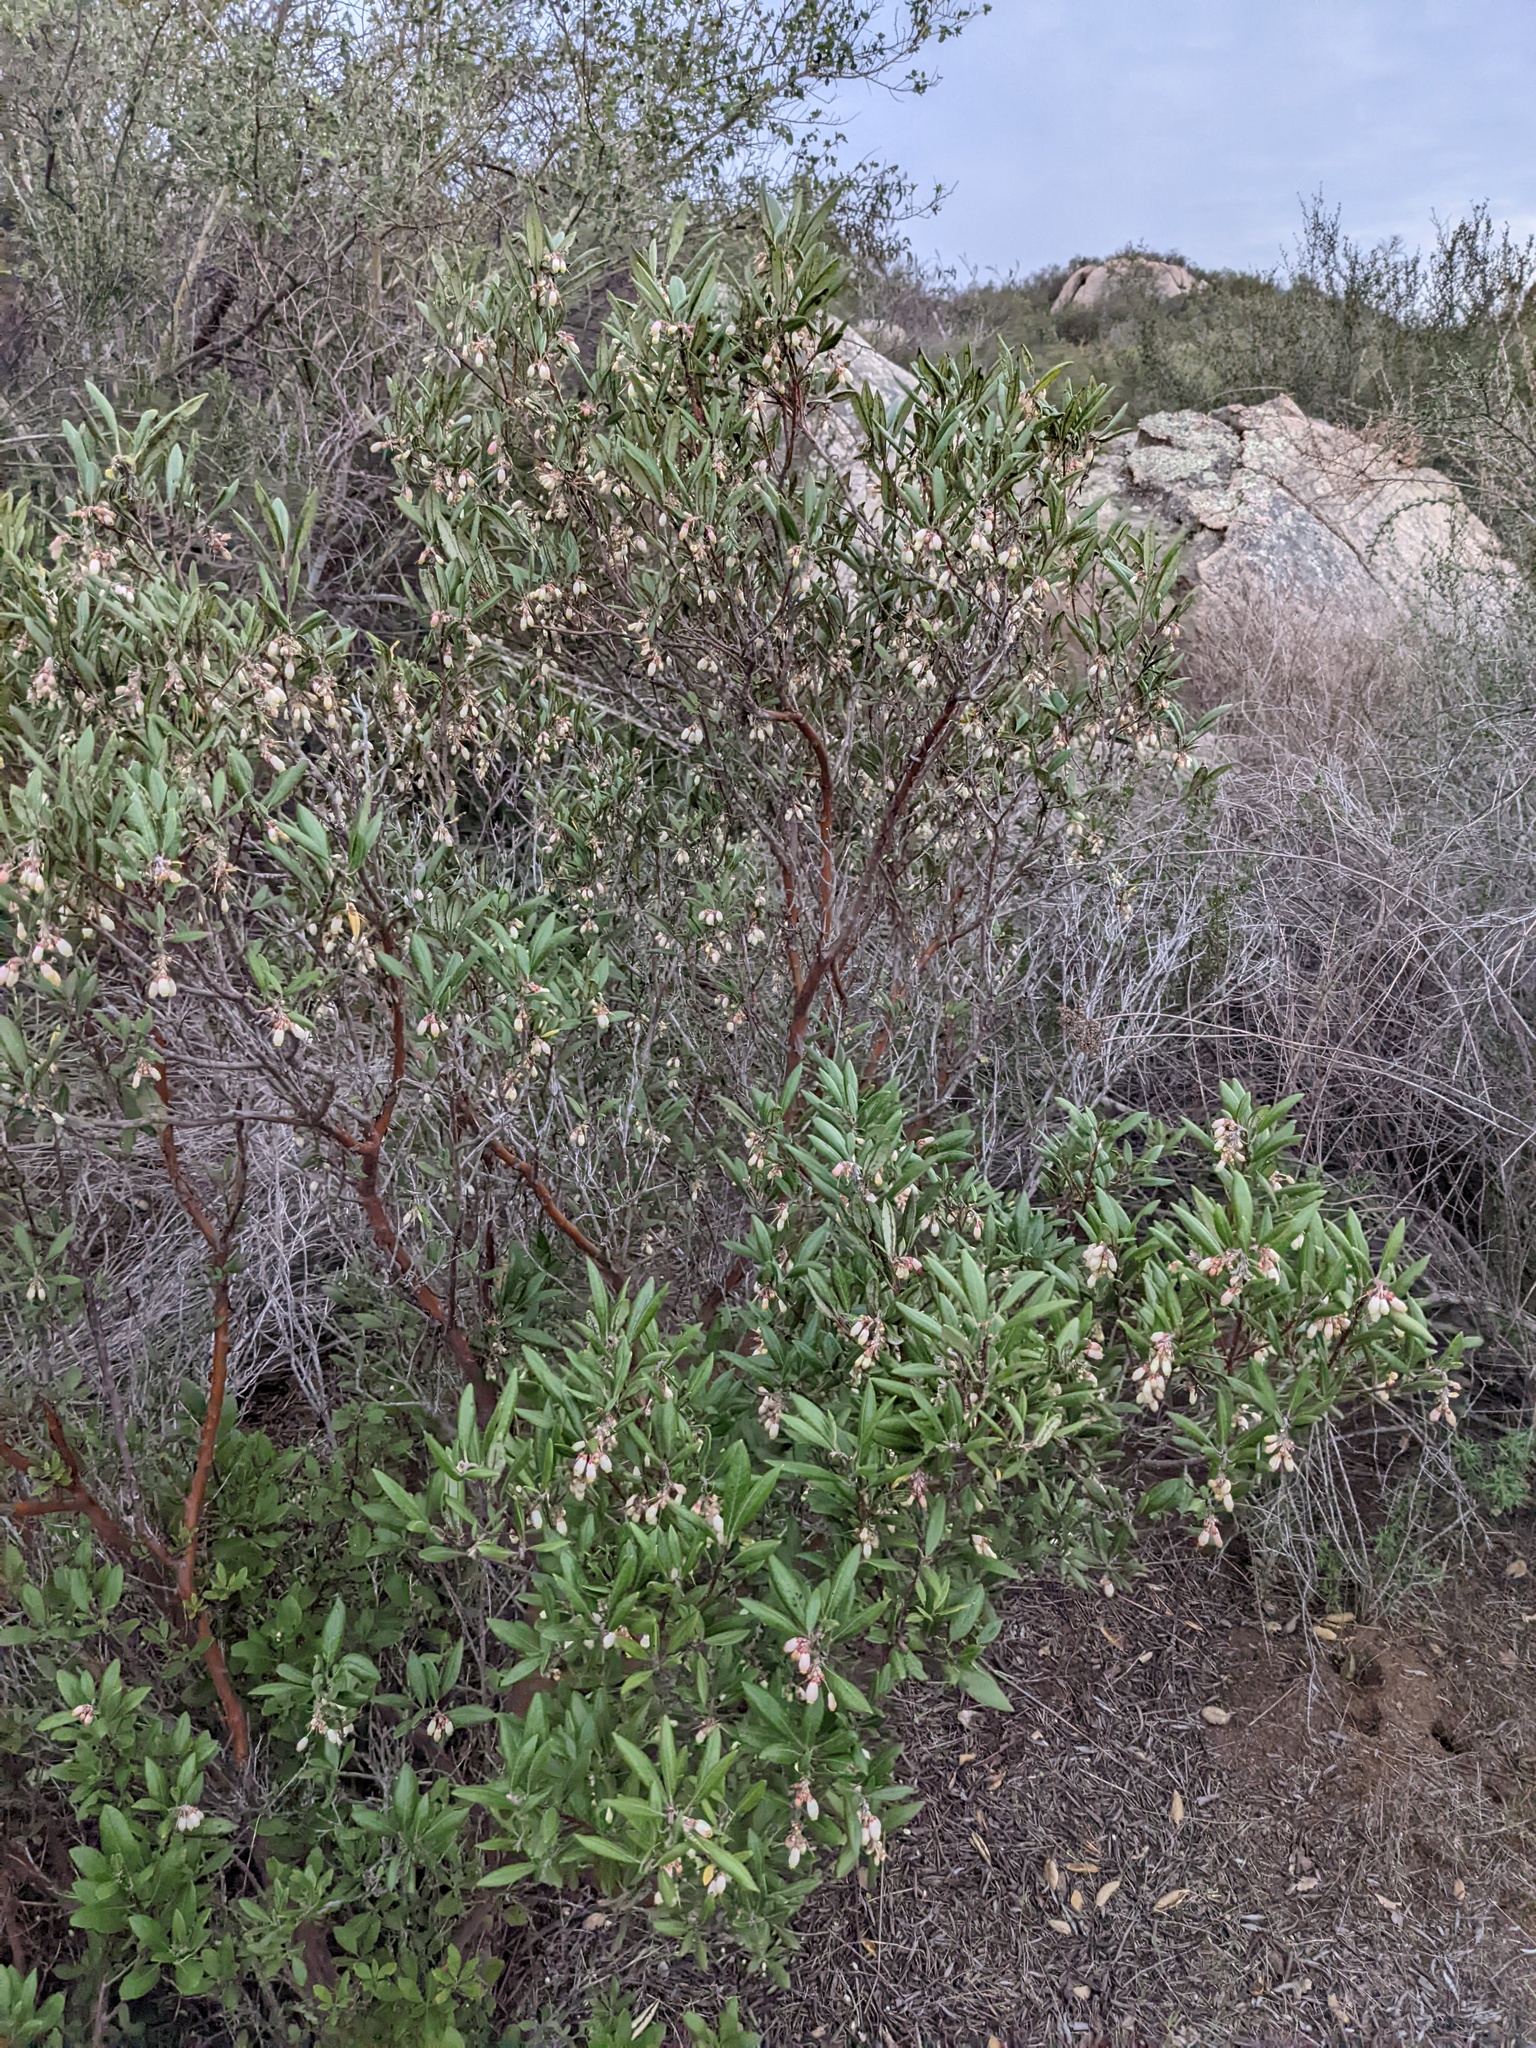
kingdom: Plantae
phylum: Tracheophyta
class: Magnoliopsida
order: Ericales
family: Ericaceae
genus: Arctostaphylos
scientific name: Arctostaphylos bicolor
